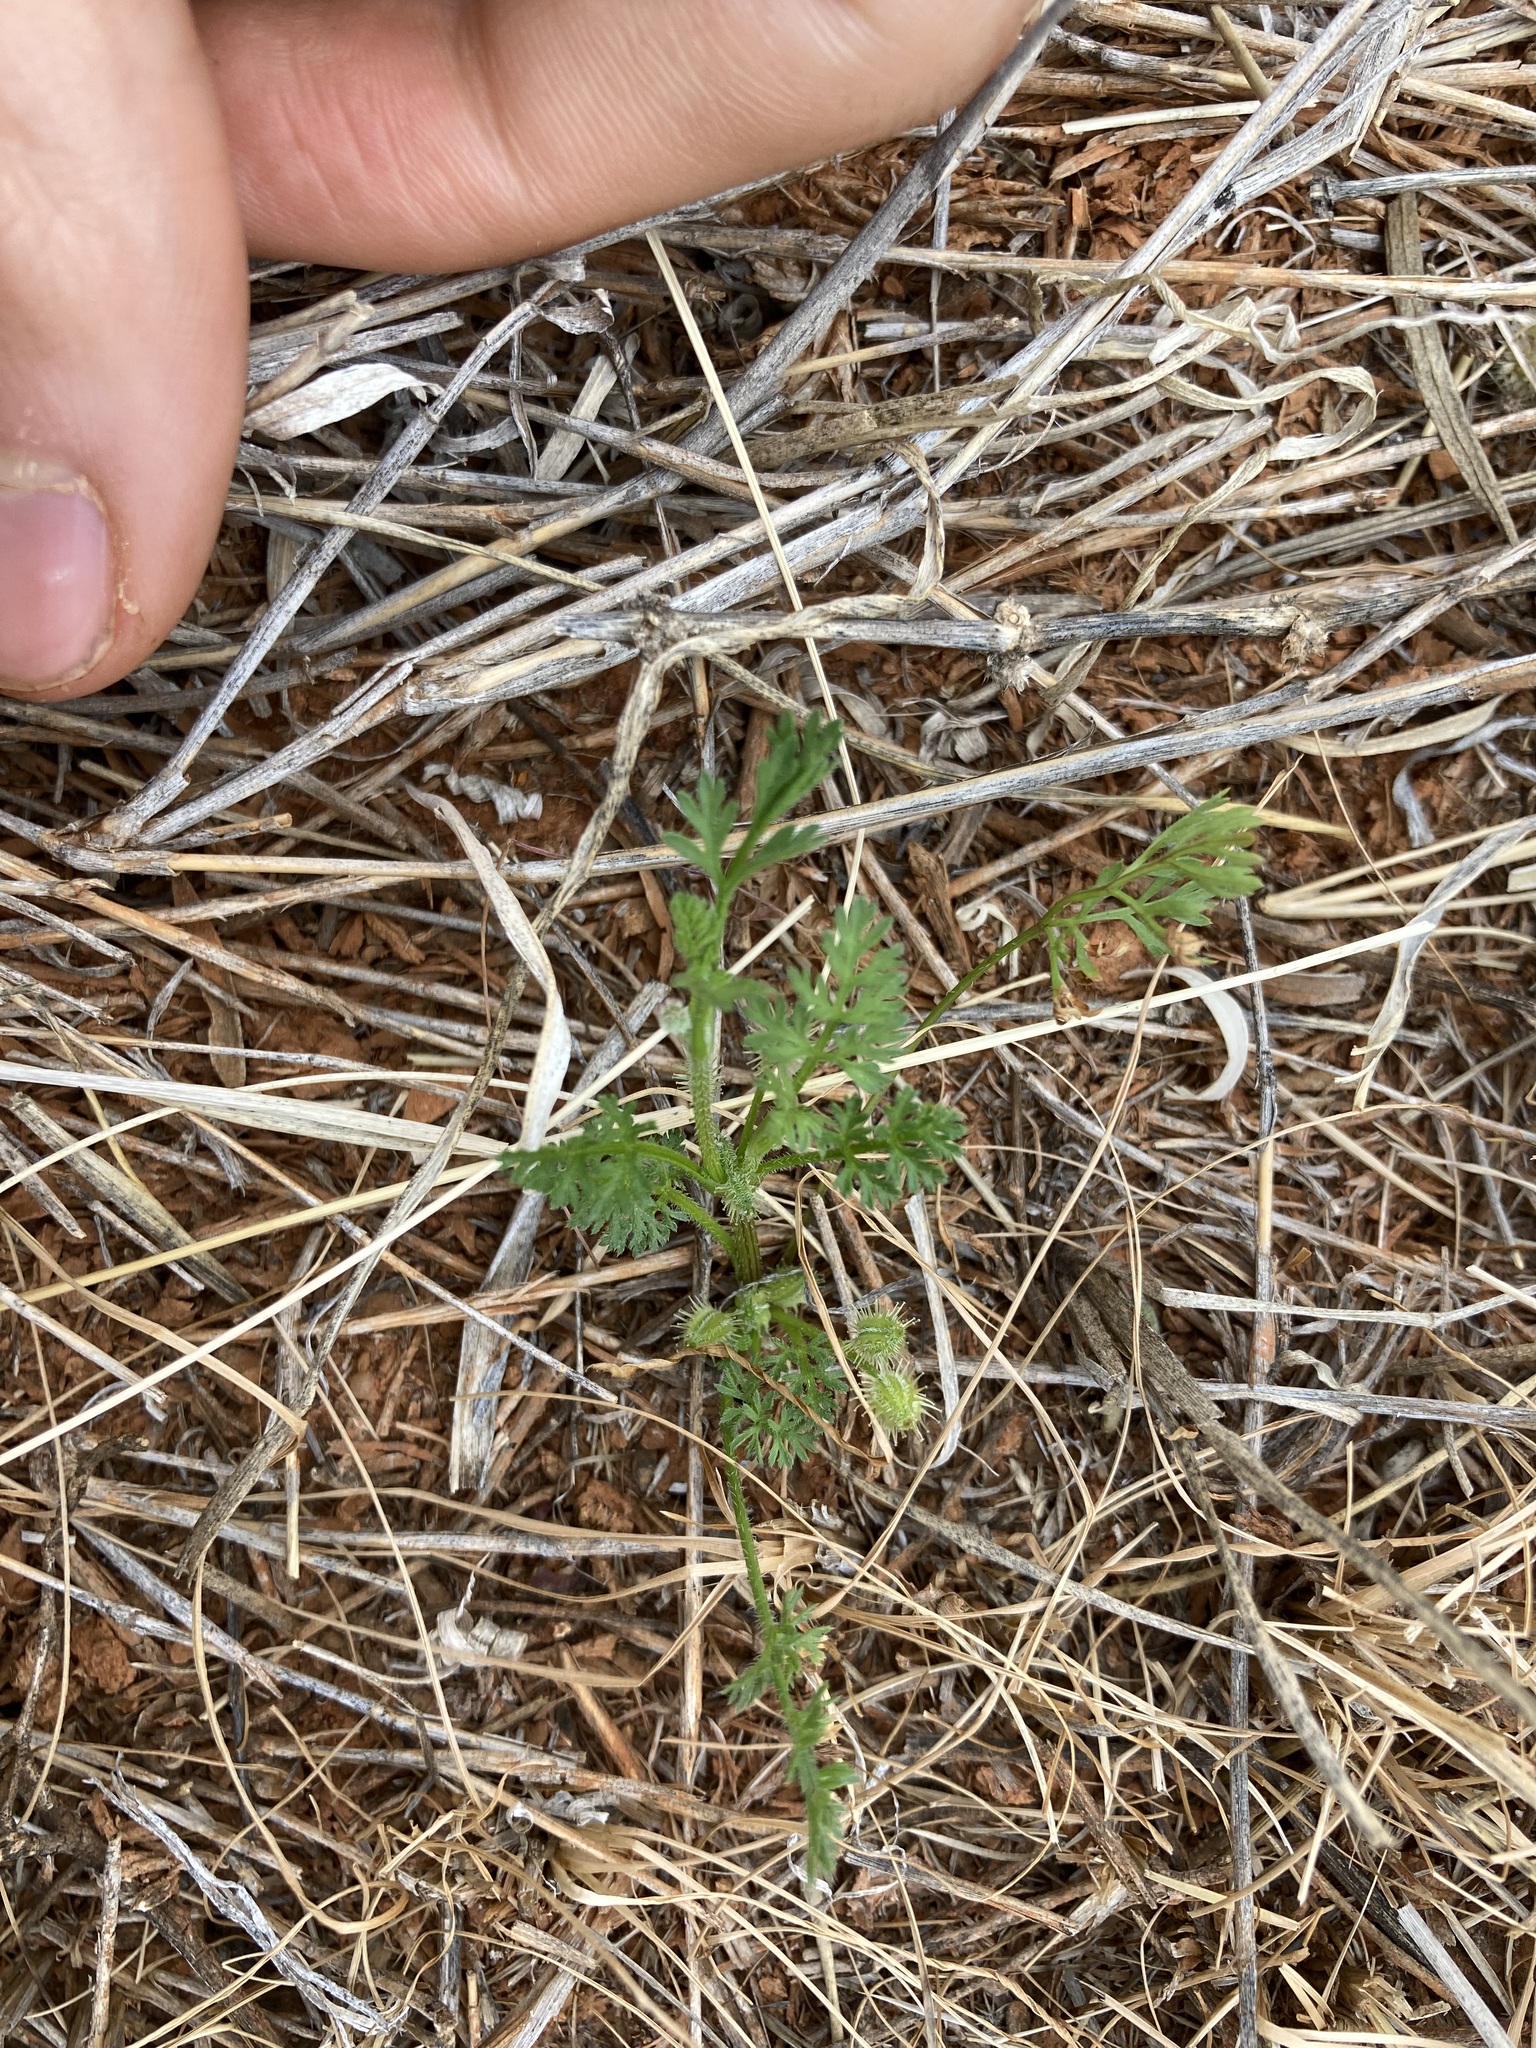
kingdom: Plantae
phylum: Tracheophyta
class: Magnoliopsida
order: Apiales
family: Apiaceae
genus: Daucus
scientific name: Daucus glochidiatus
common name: Australian carrot
